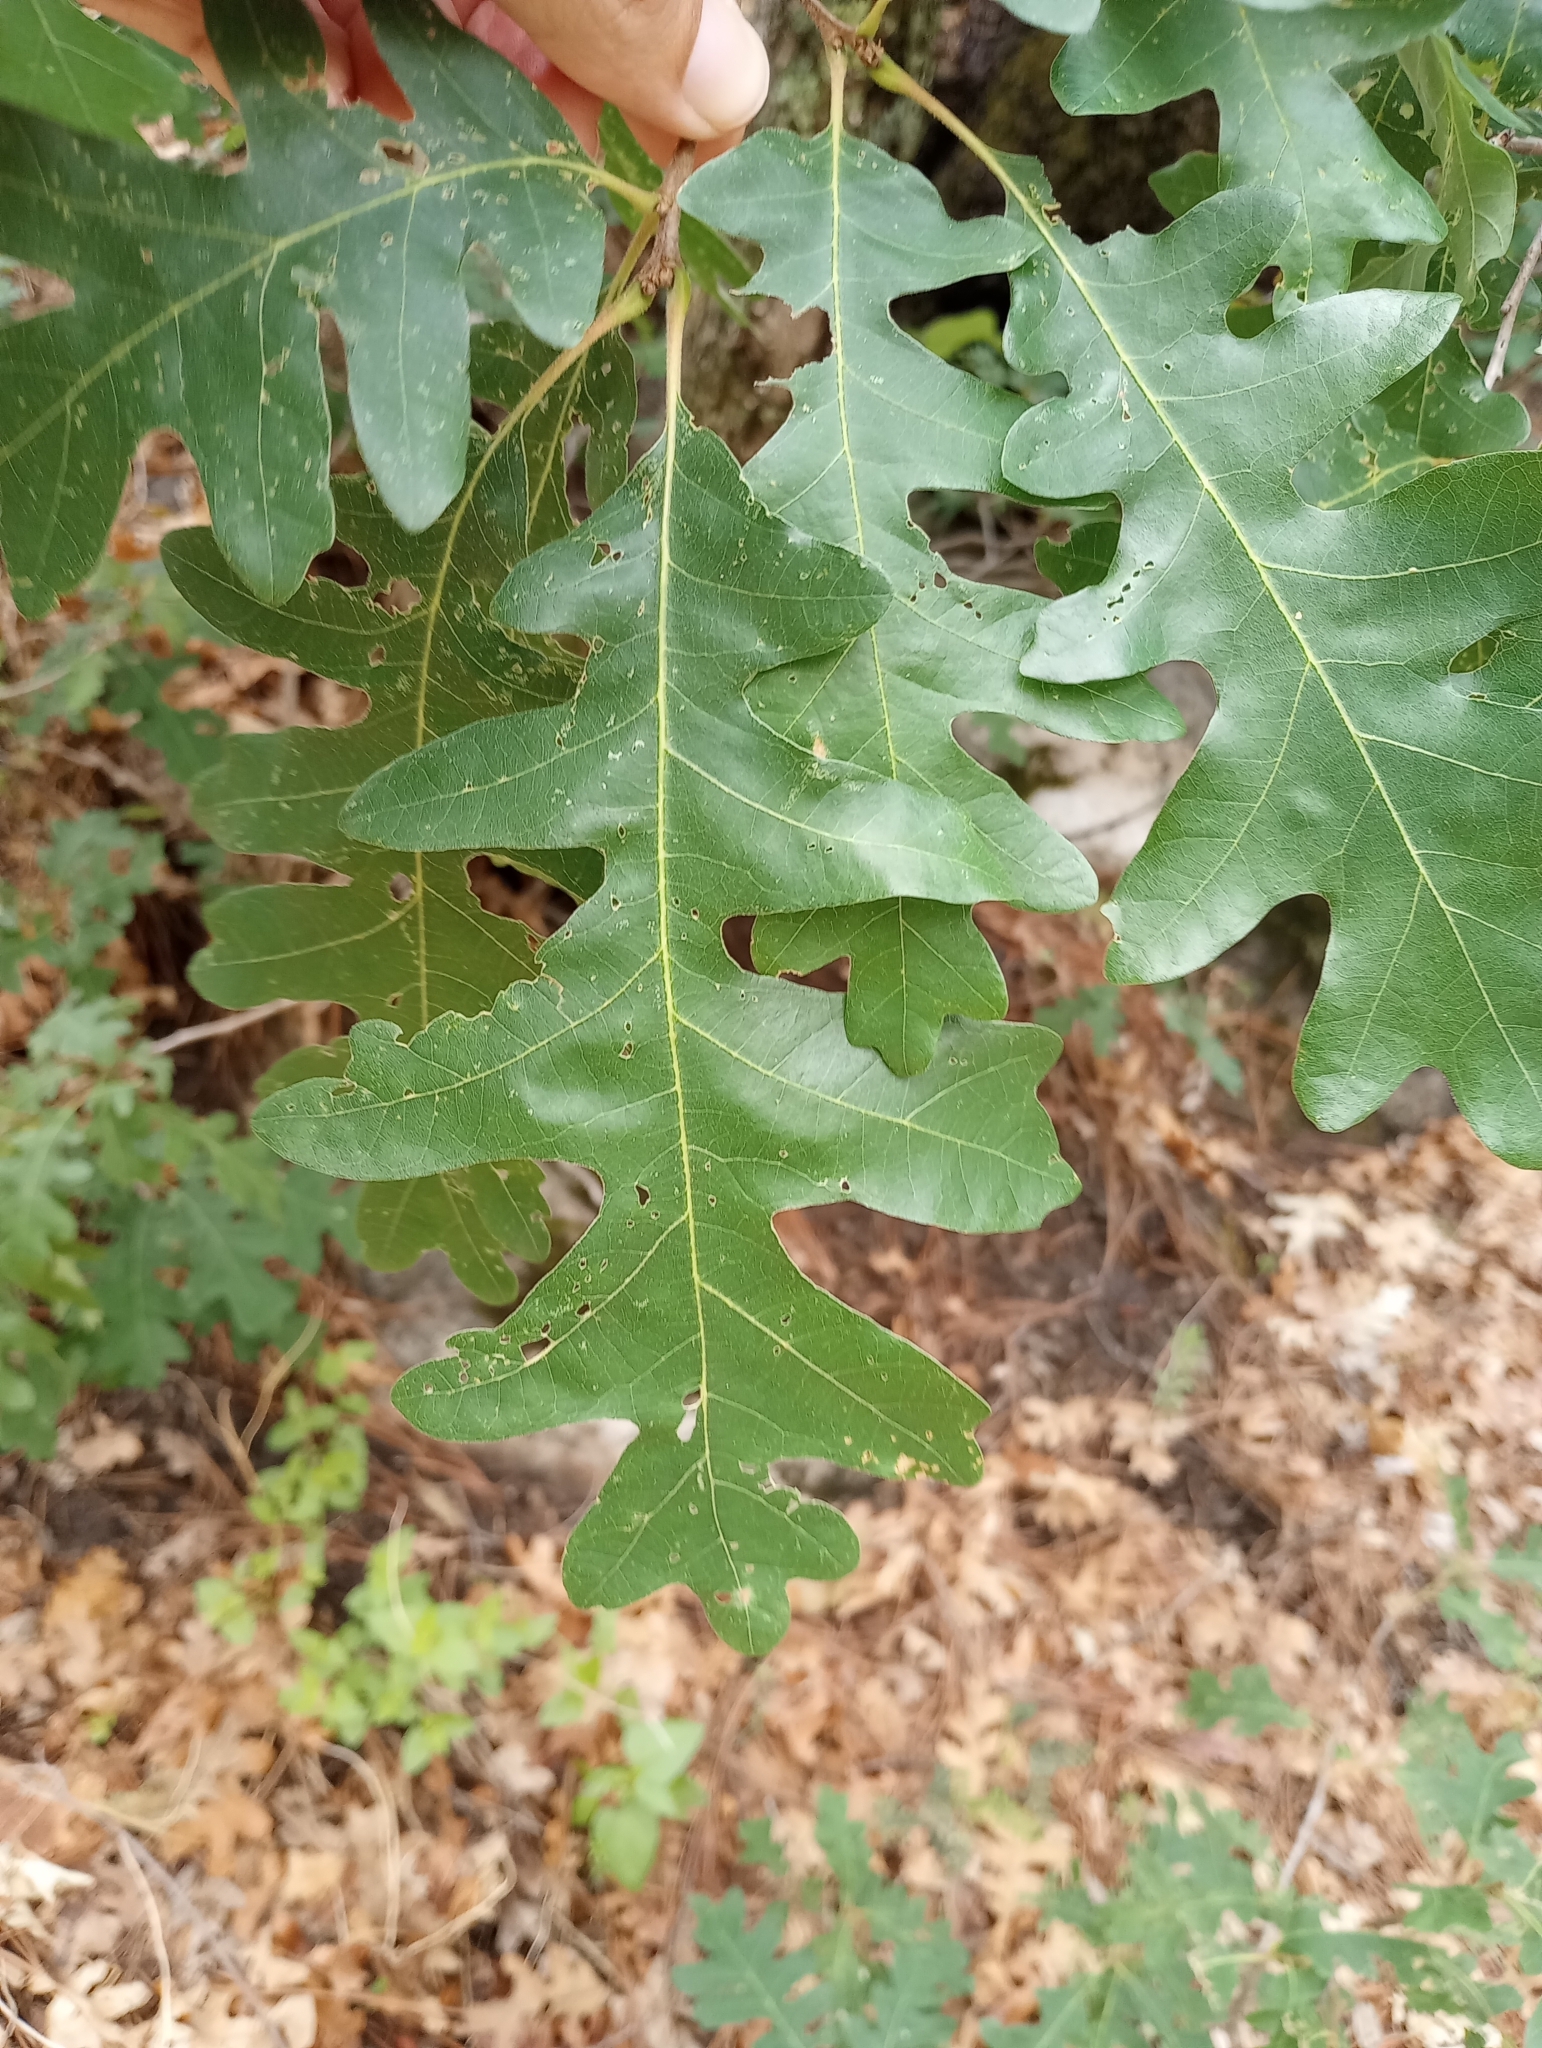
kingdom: Plantae
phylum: Tracheophyta
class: Magnoliopsida
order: Fagales
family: Fagaceae
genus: Quercus
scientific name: Quercus gambelii
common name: Gambel oak
